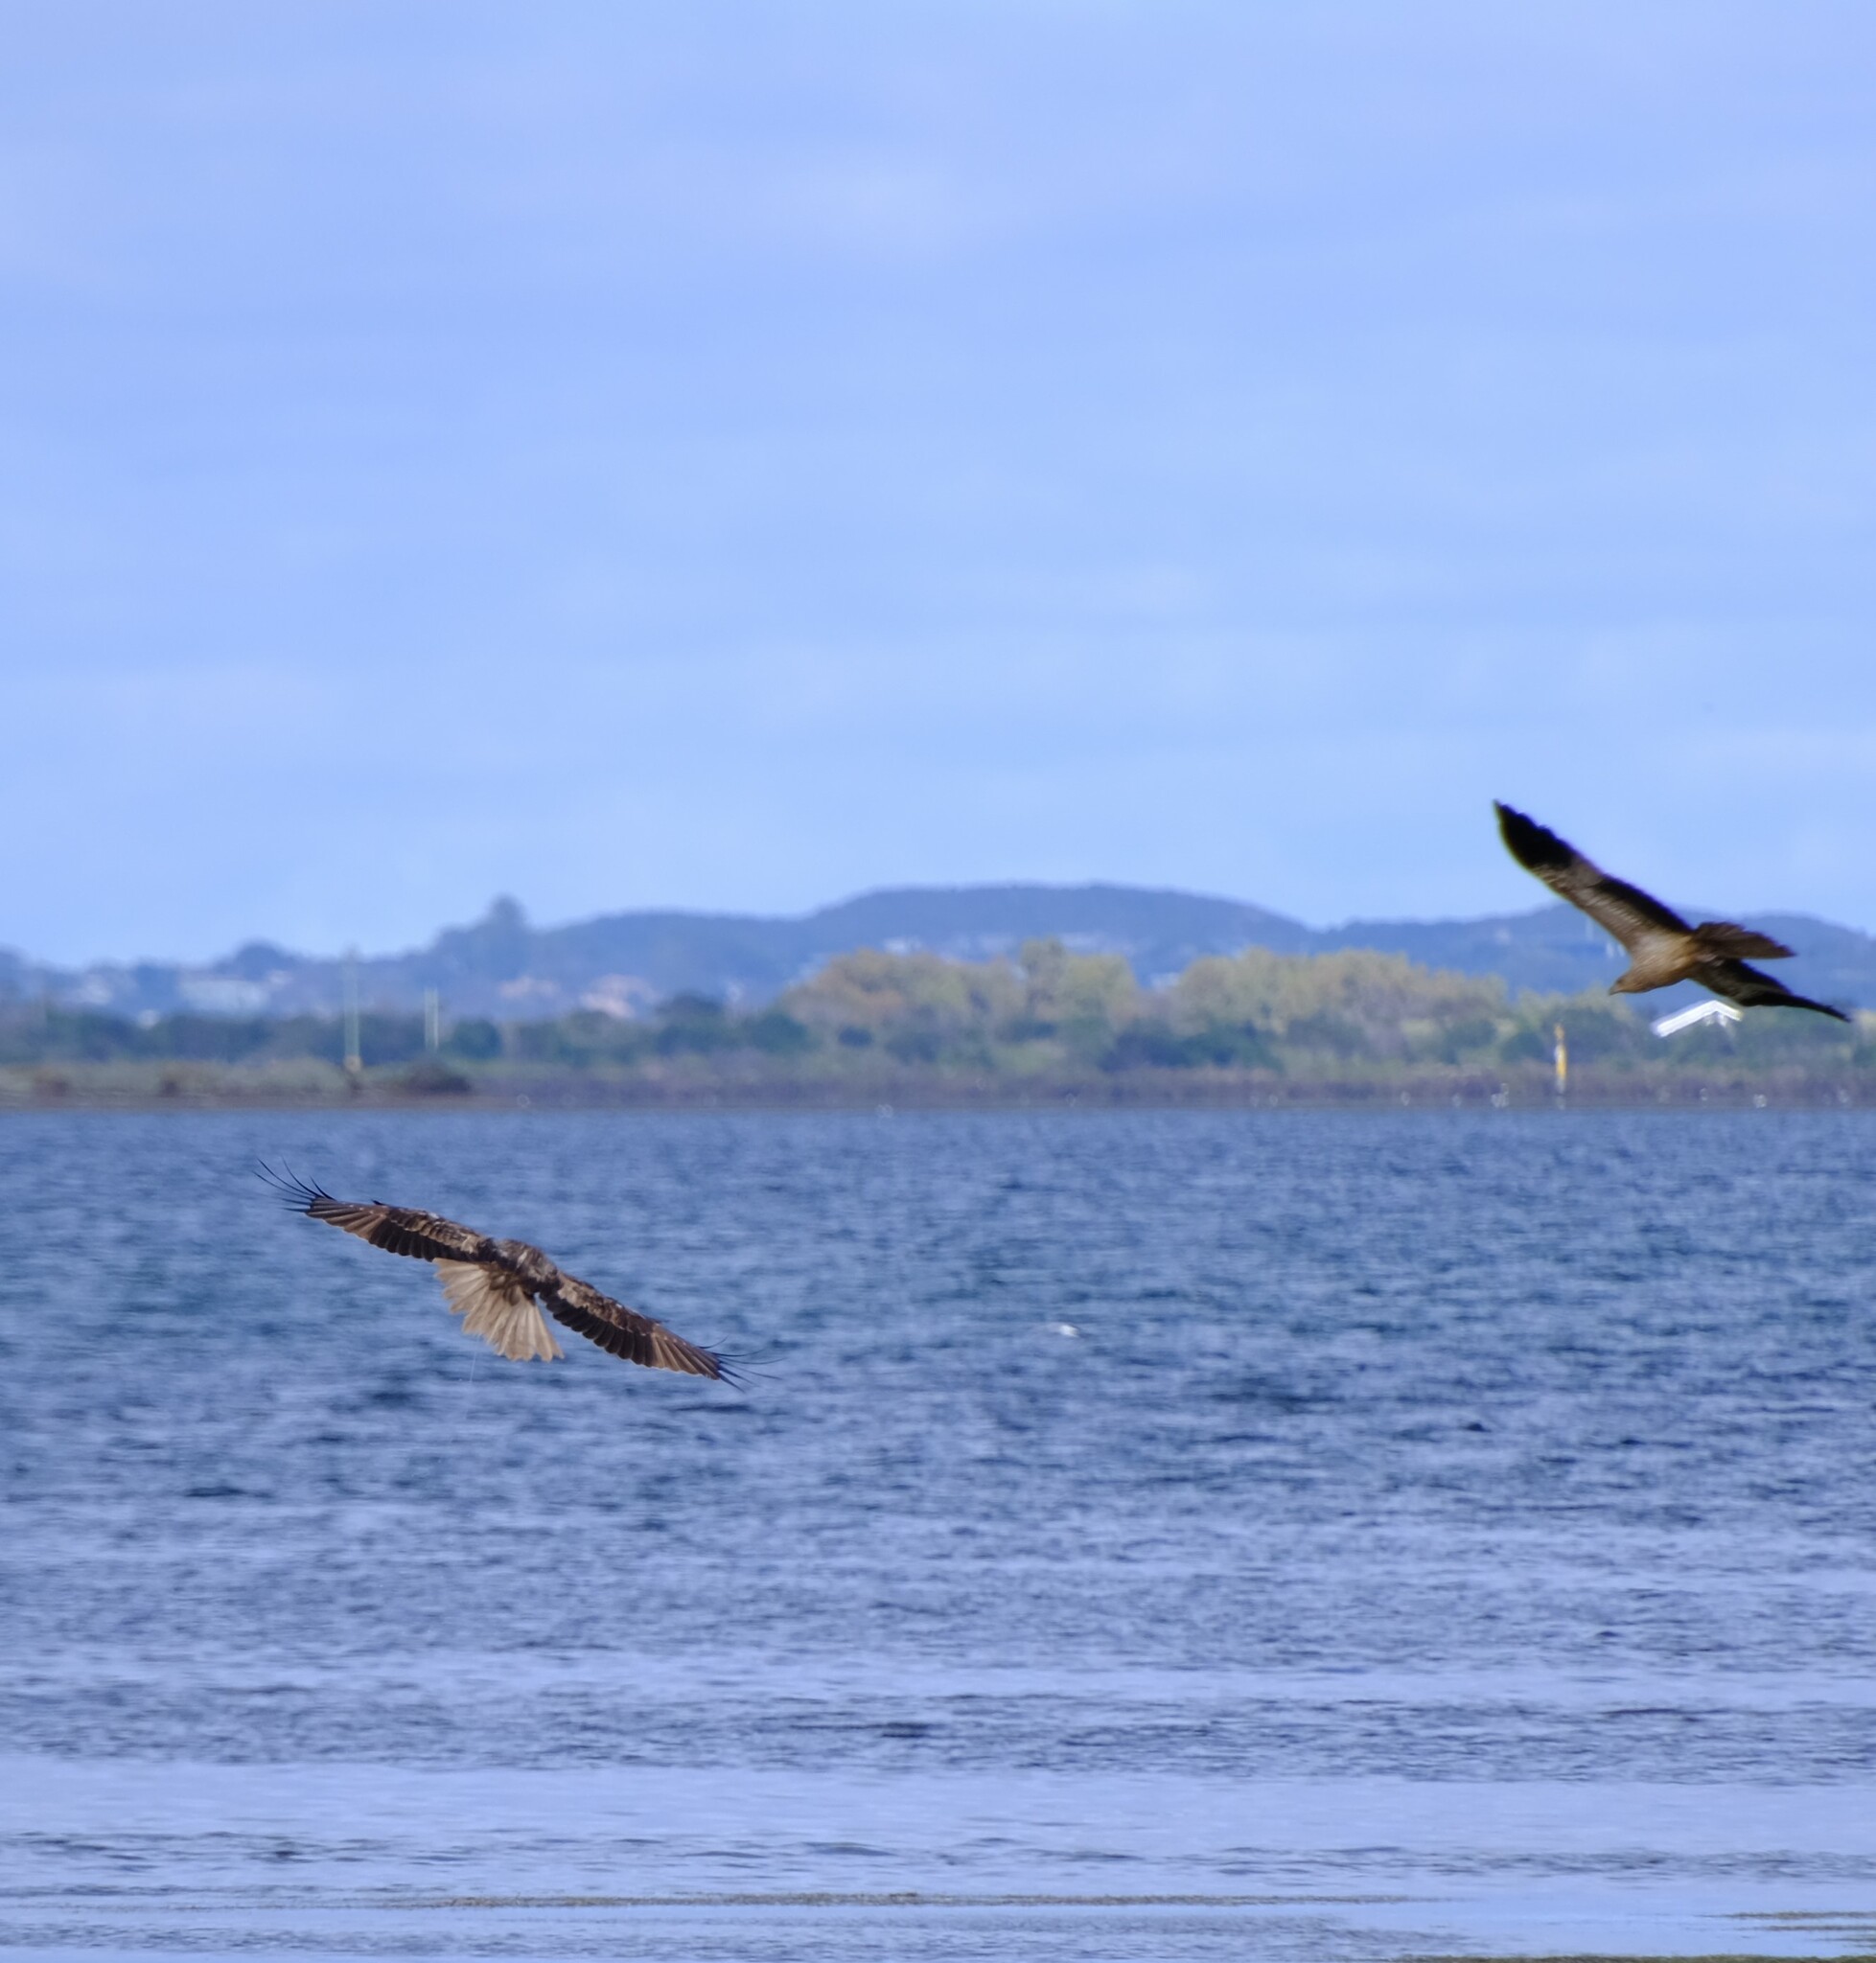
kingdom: Animalia
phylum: Chordata
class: Aves
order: Accipitriformes
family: Accipitridae
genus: Haliastur
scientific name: Haliastur sphenurus
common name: Whistling kite
